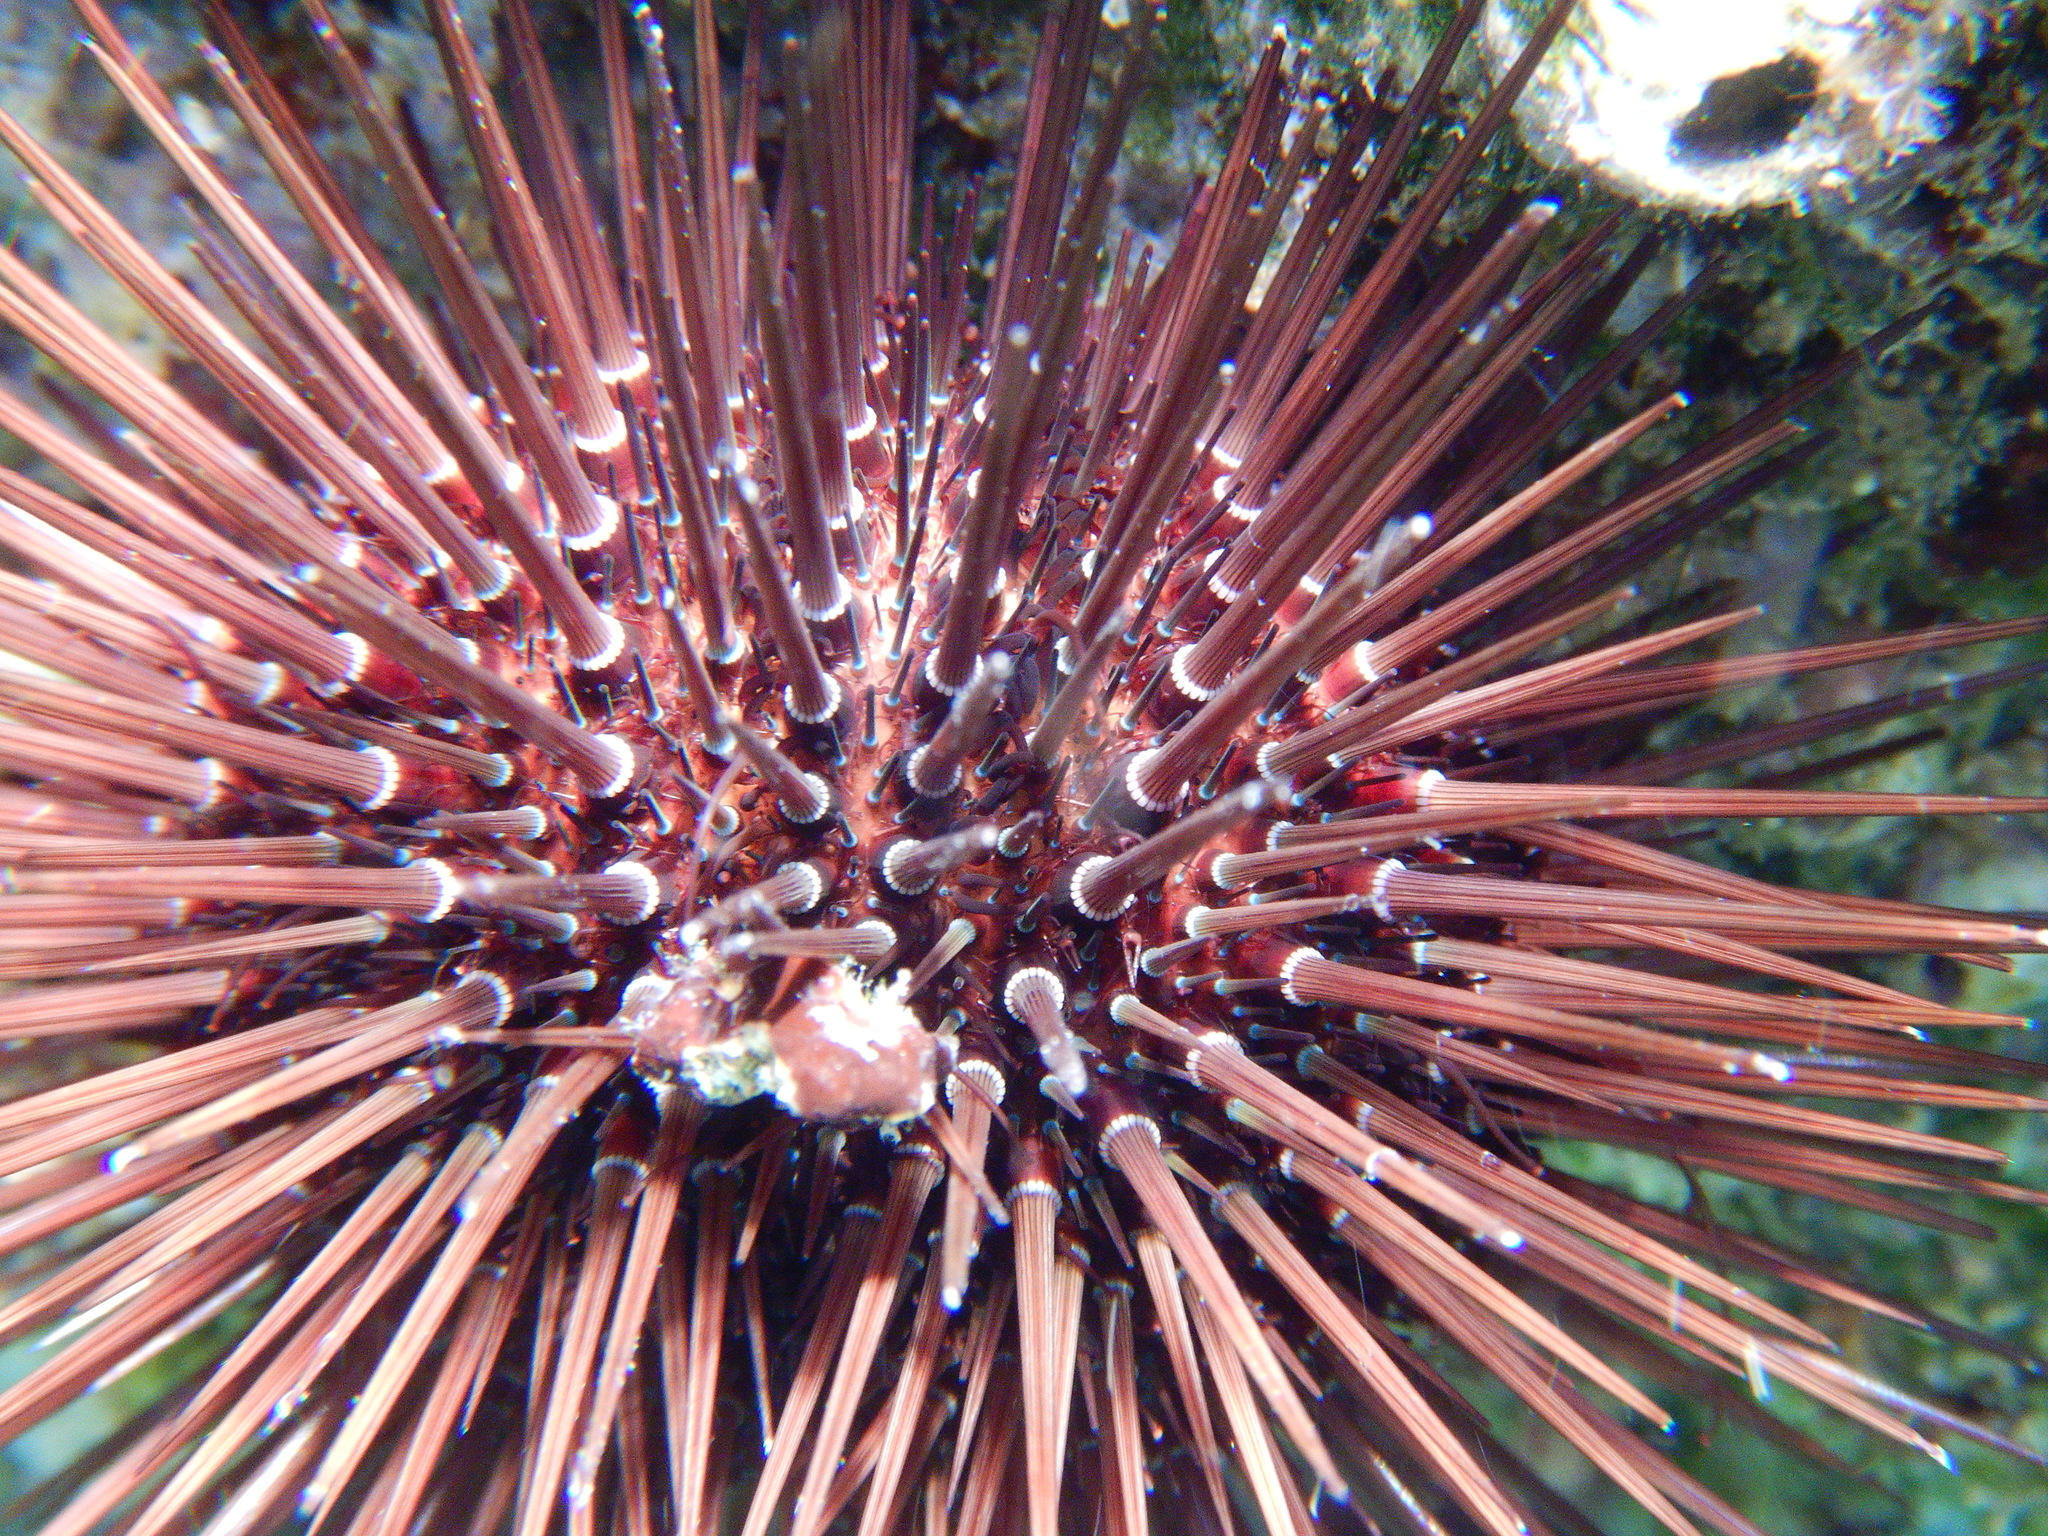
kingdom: Animalia
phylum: Echinodermata
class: Echinoidea
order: Camarodonta
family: Parechinidae
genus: Paracentrotus
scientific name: Paracentrotus lividus
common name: Purple sea urchin
